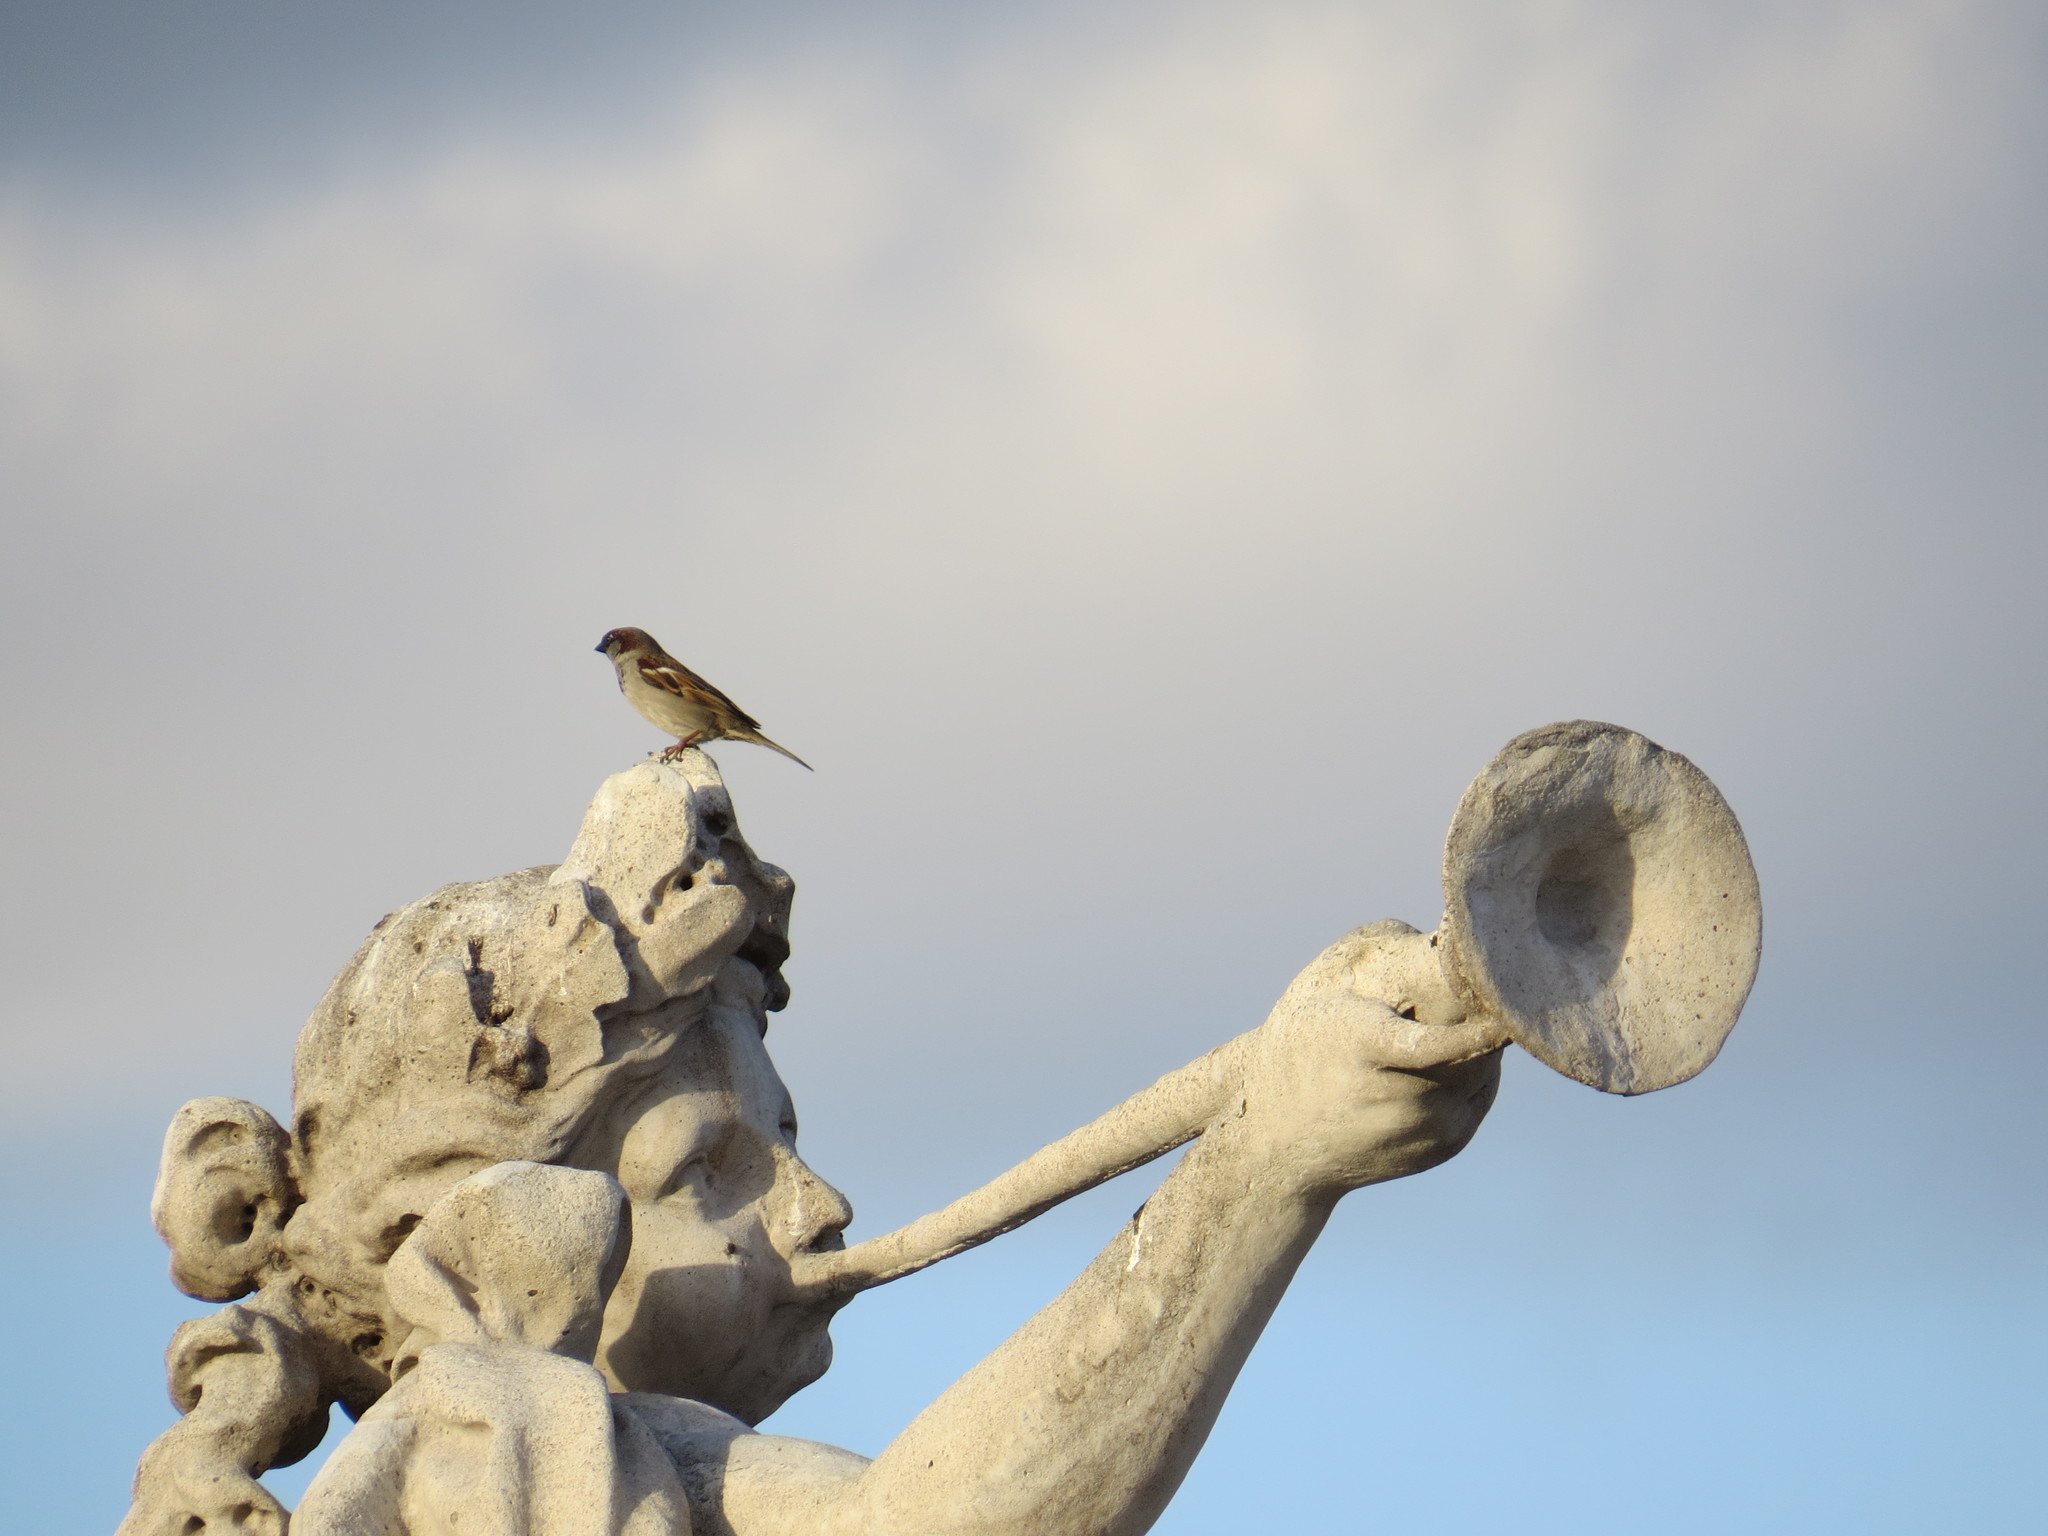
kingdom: Animalia
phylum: Chordata
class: Aves
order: Passeriformes
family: Passeridae
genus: Passer
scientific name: Passer domesticus
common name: House sparrow
